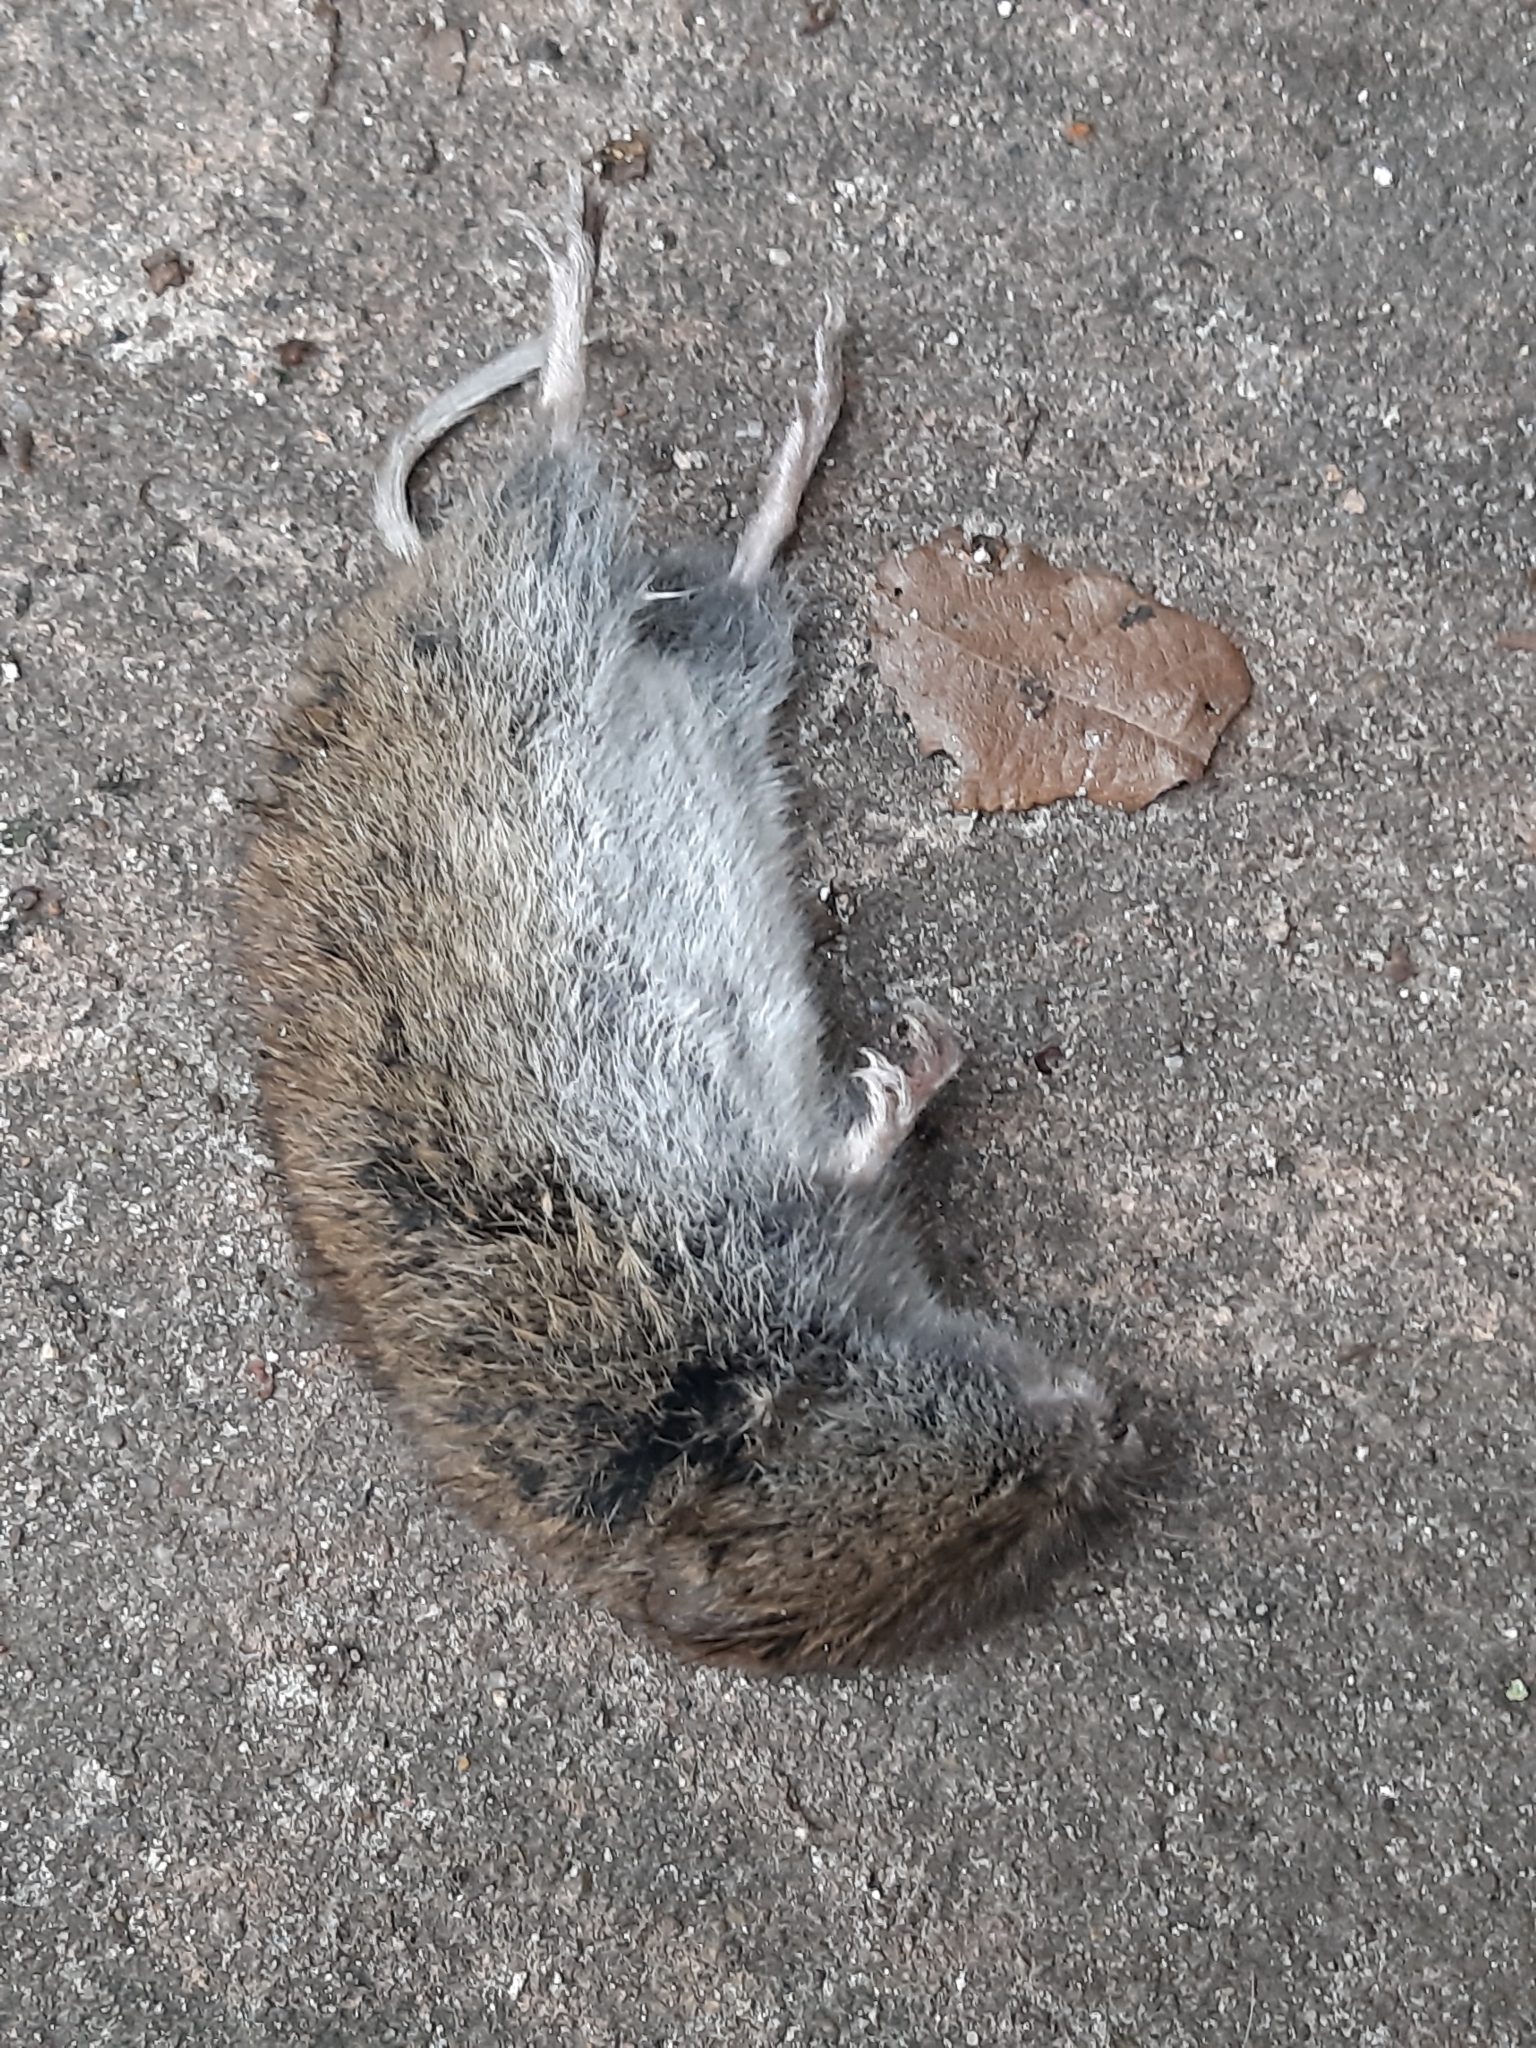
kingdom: Animalia
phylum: Chordata
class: Mammalia
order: Rodentia
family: Cricetidae
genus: Microtus
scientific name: Microtus agrestis
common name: Field vole
